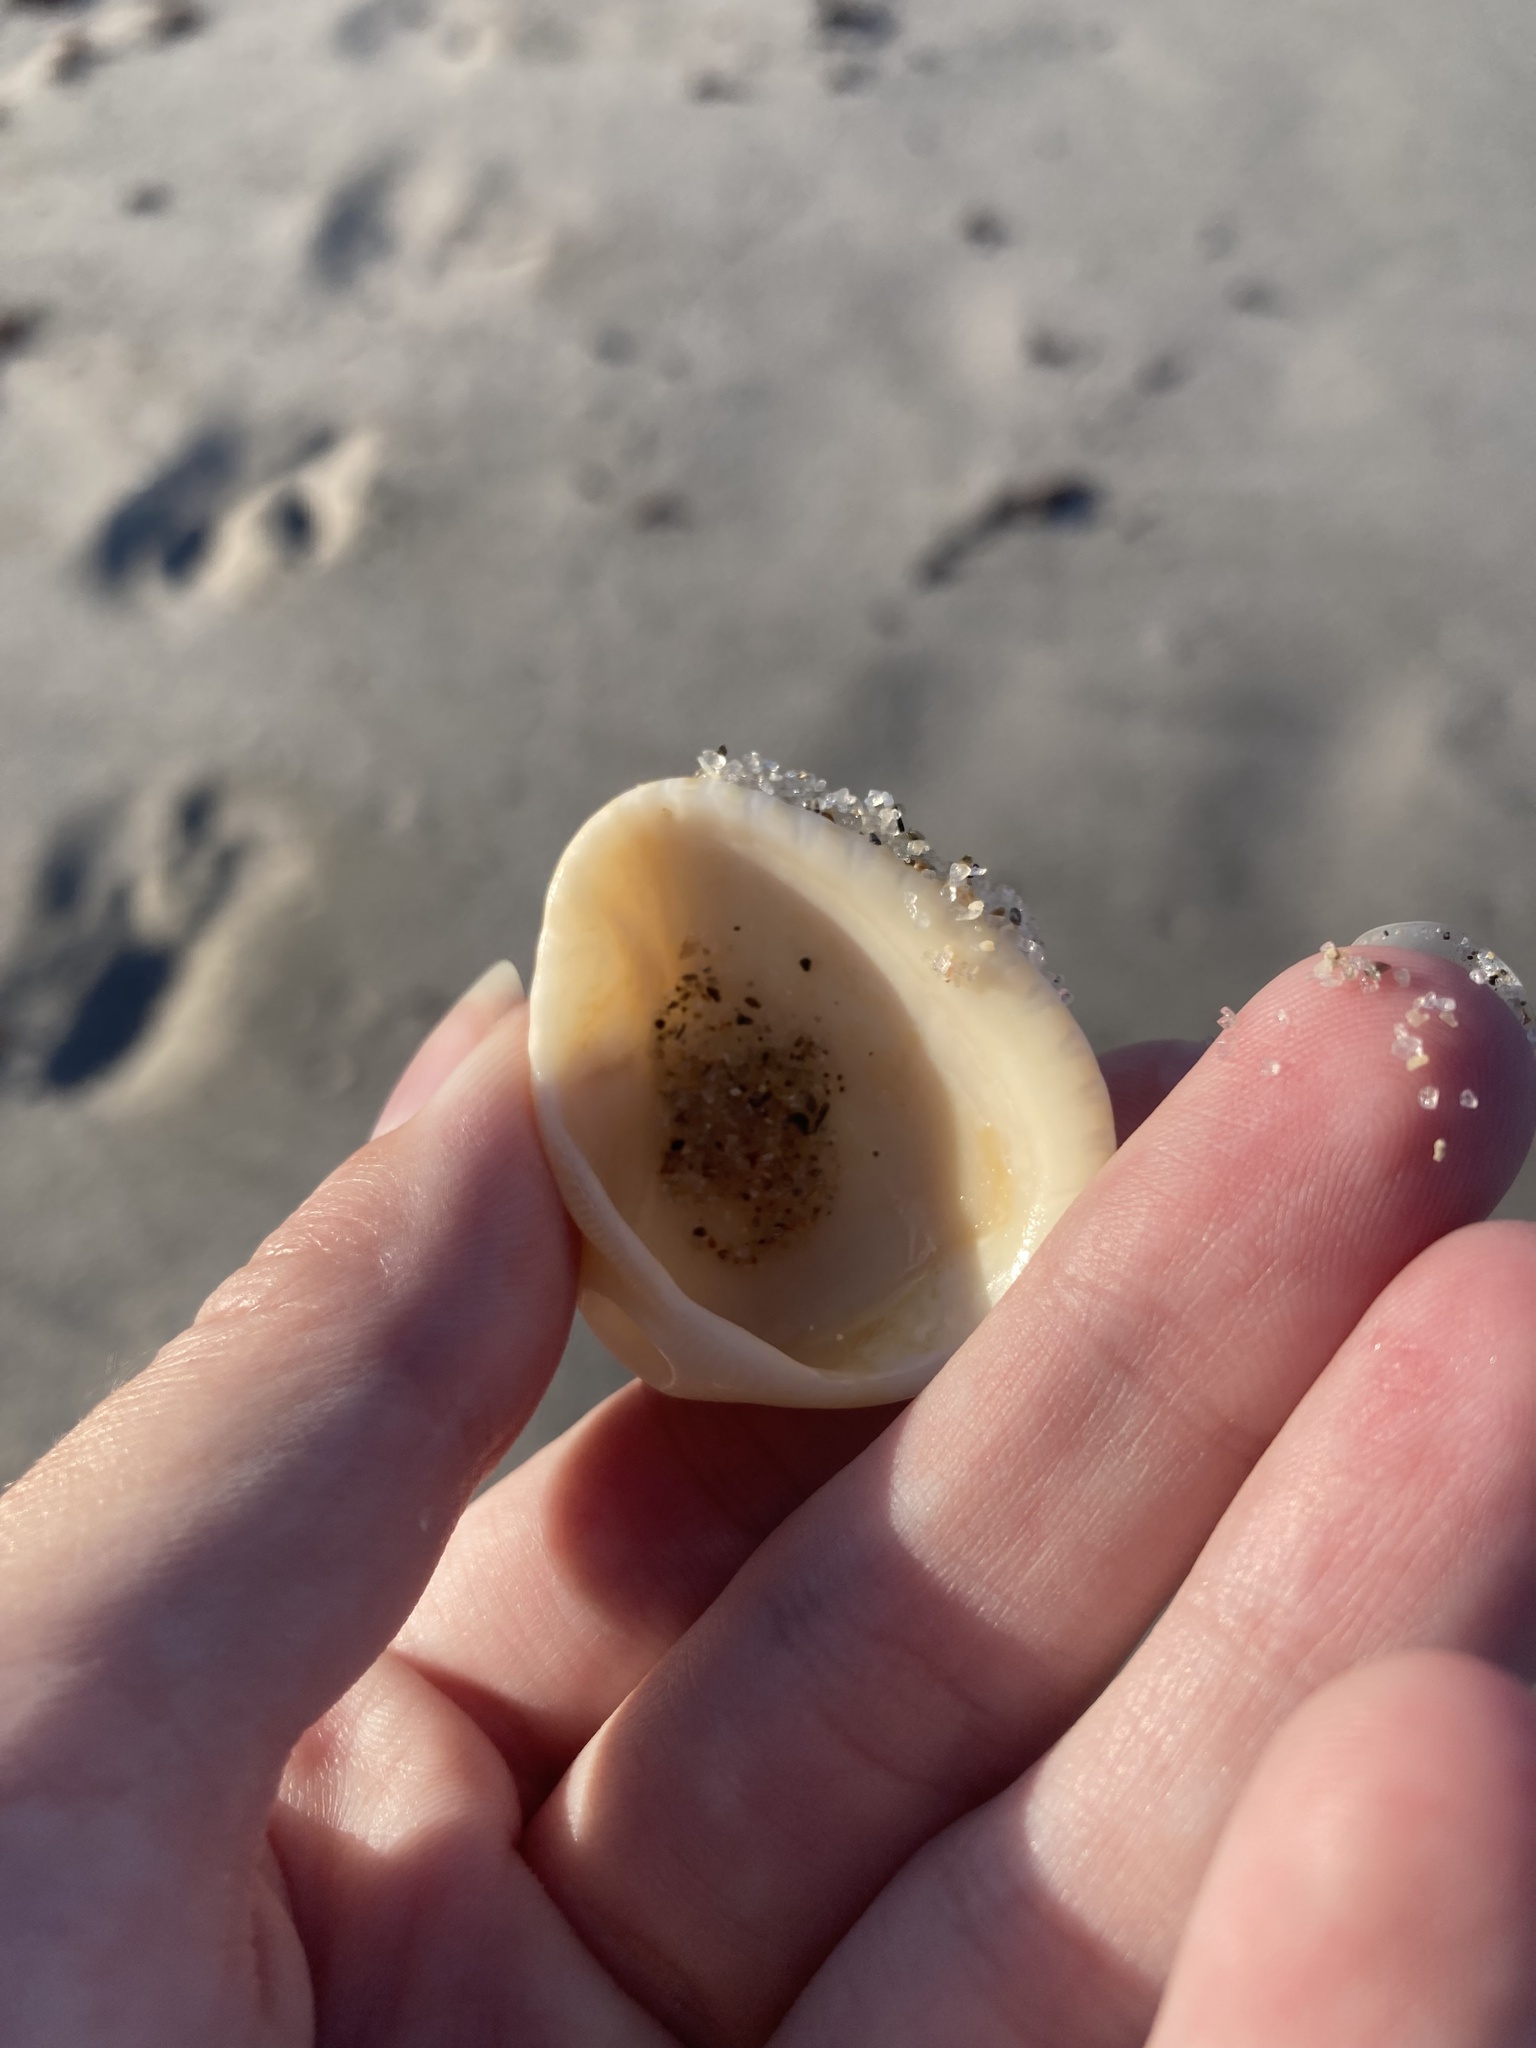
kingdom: Animalia
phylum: Mollusca
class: Bivalvia
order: Arcida
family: Noetiidae
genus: Noetia
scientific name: Noetia ponderosa
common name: Ponderous ark
